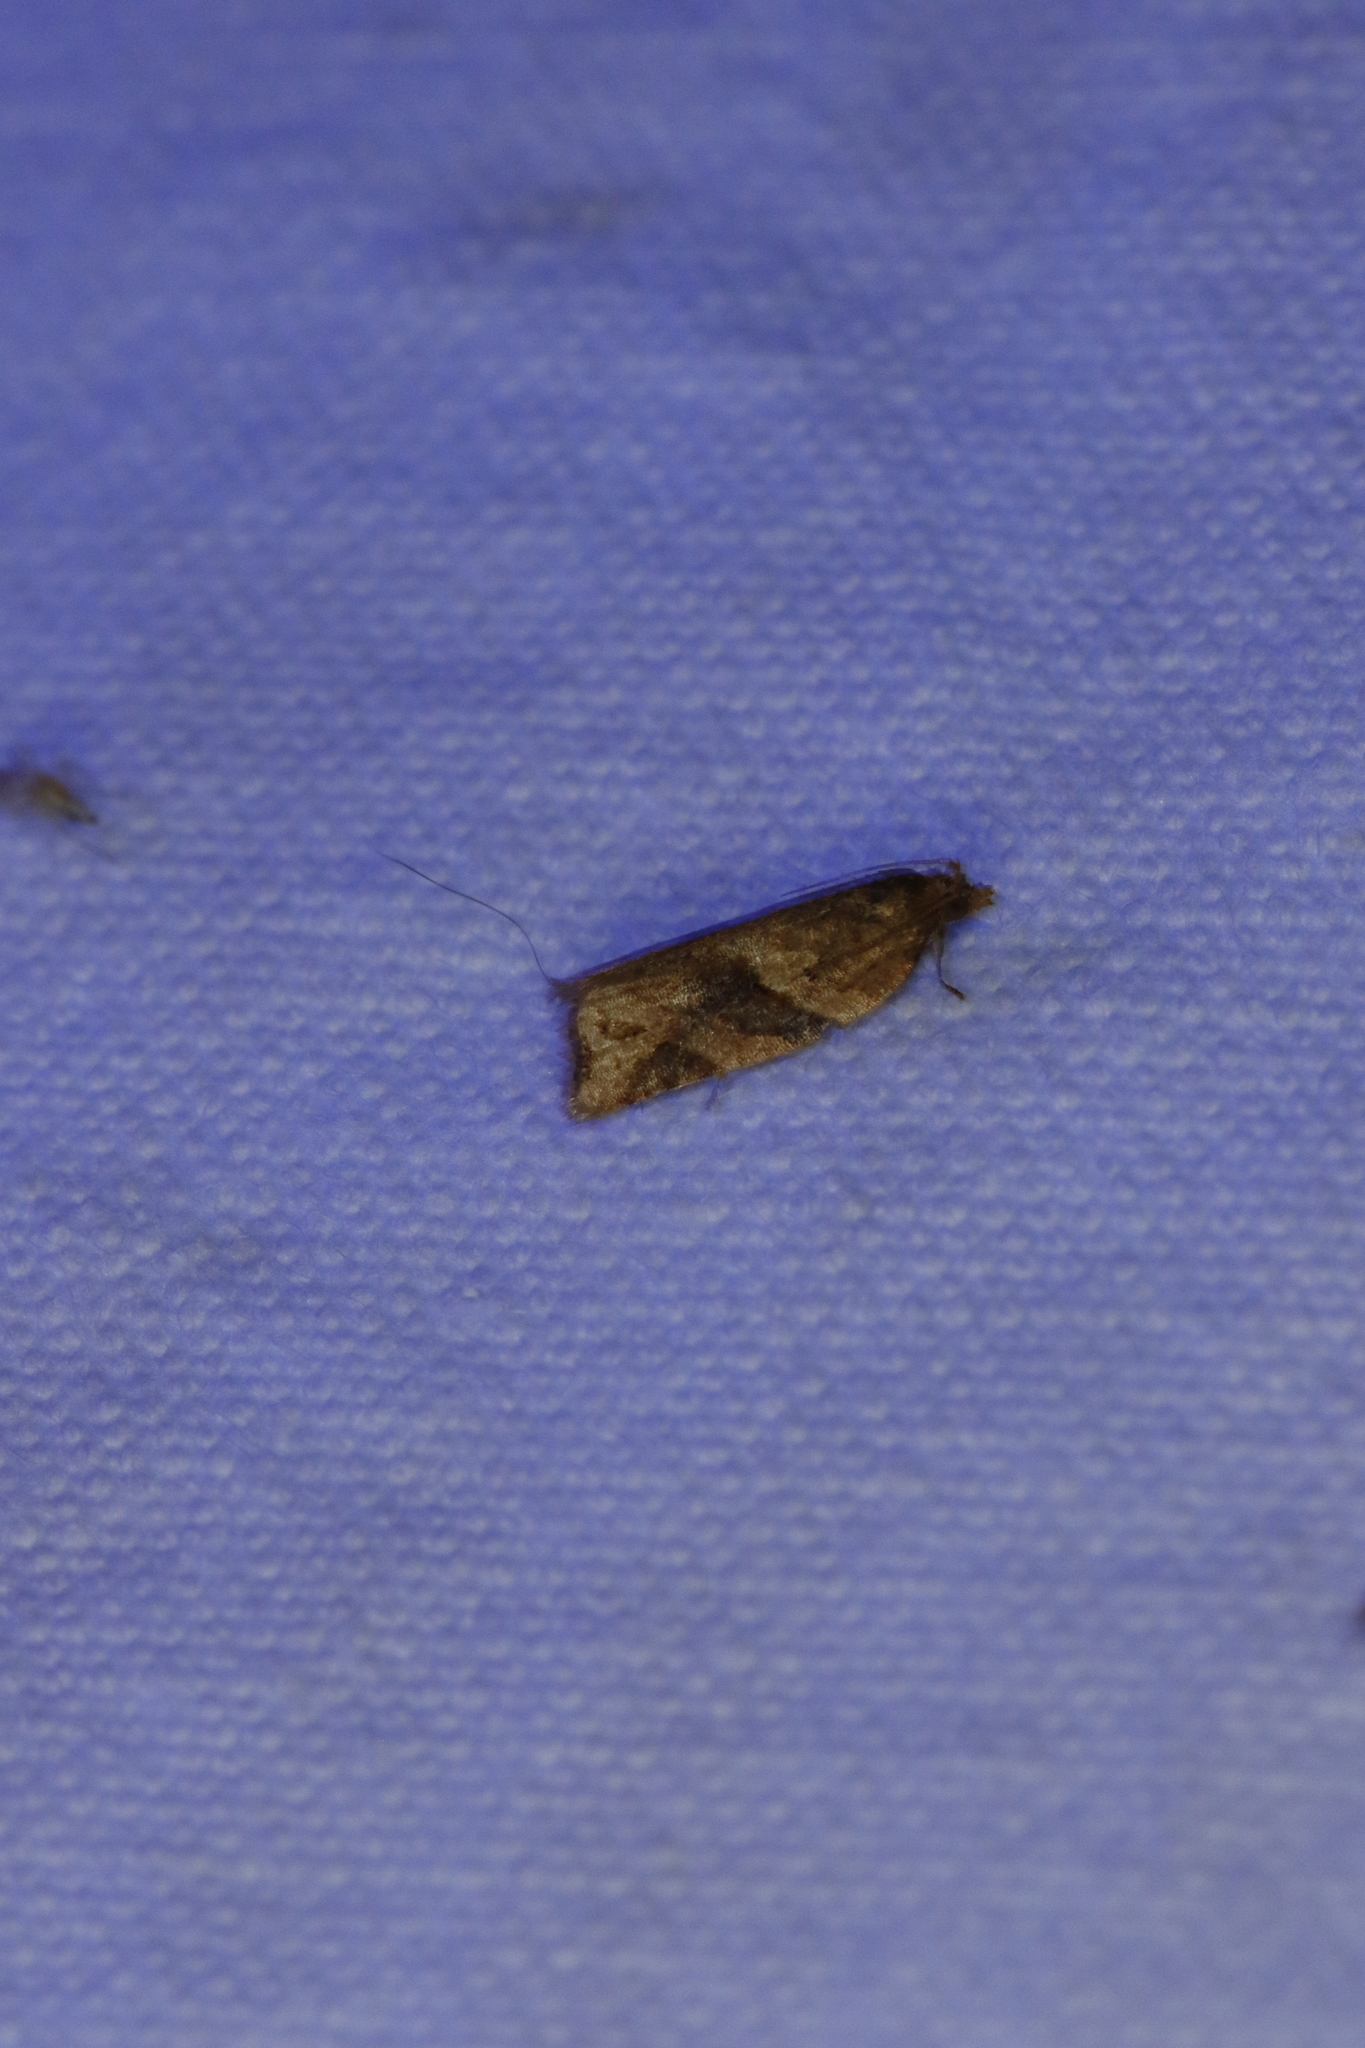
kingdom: Animalia
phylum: Arthropoda
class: Insecta
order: Lepidoptera
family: Tortricidae
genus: Argyrotaenia
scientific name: Argyrotaenia ivana
